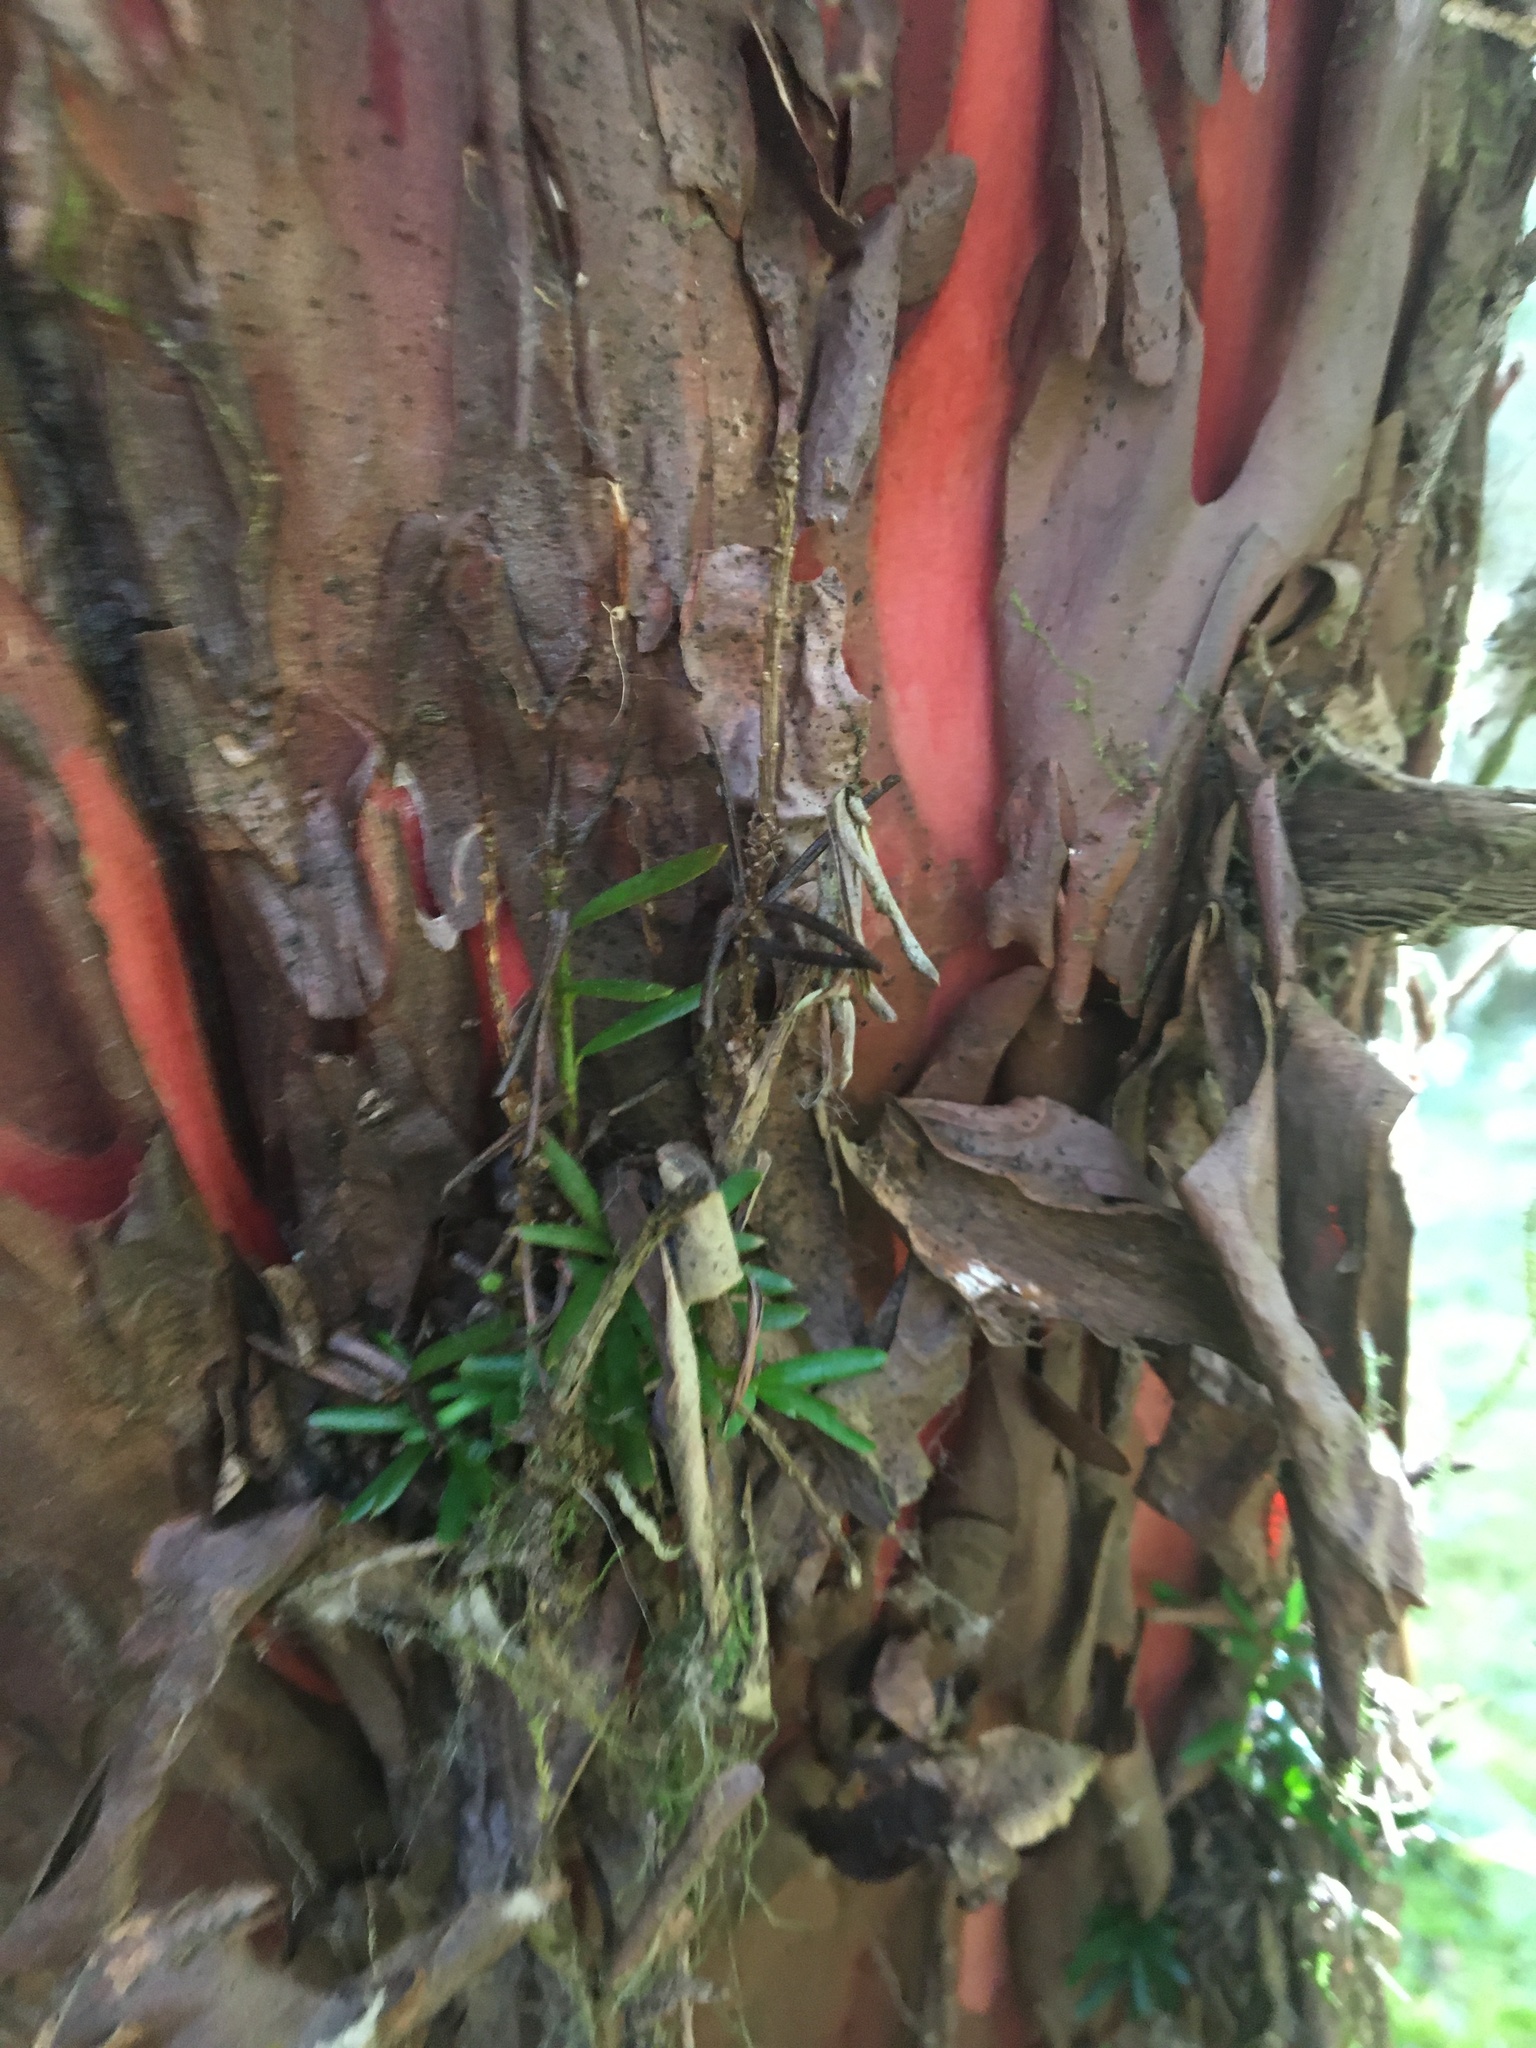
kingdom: Plantae
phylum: Tracheophyta
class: Pinopsida
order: Pinales
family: Taxaceae
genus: Taxus
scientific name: Taxus brevifolia
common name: Pacific yew
